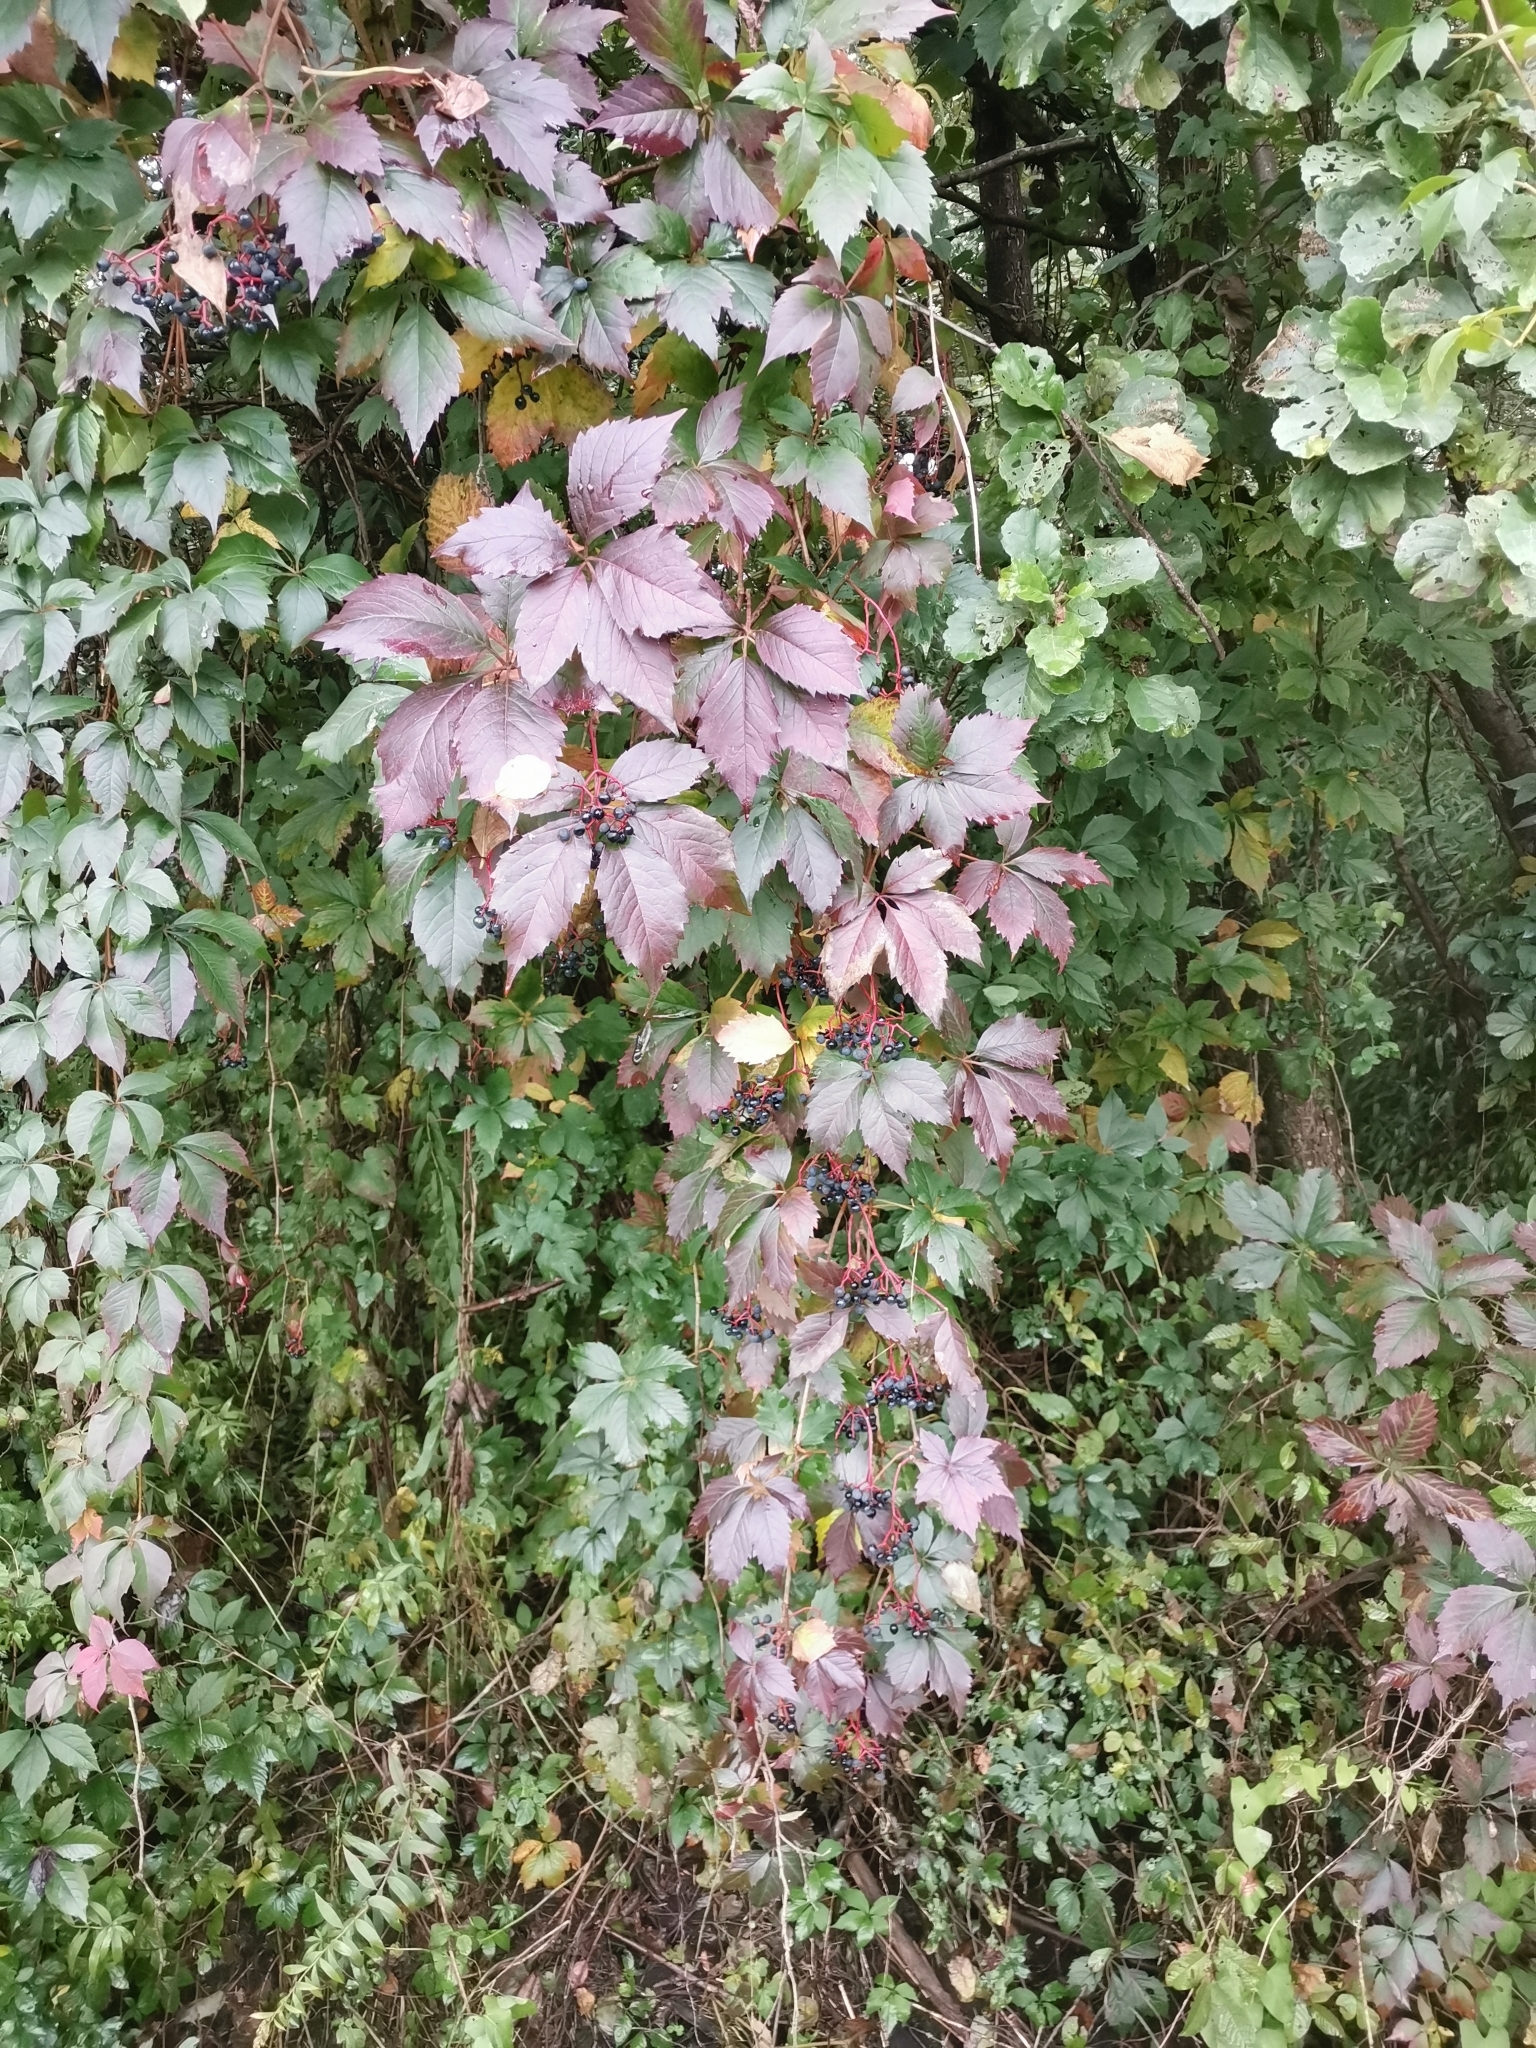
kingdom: Plantae
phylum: Tracheophyta
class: Magnoliopsida
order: Vitales
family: Vitaceae
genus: Parthenocissus
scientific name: Parthenocissus inserta
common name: False virginia-creeper
